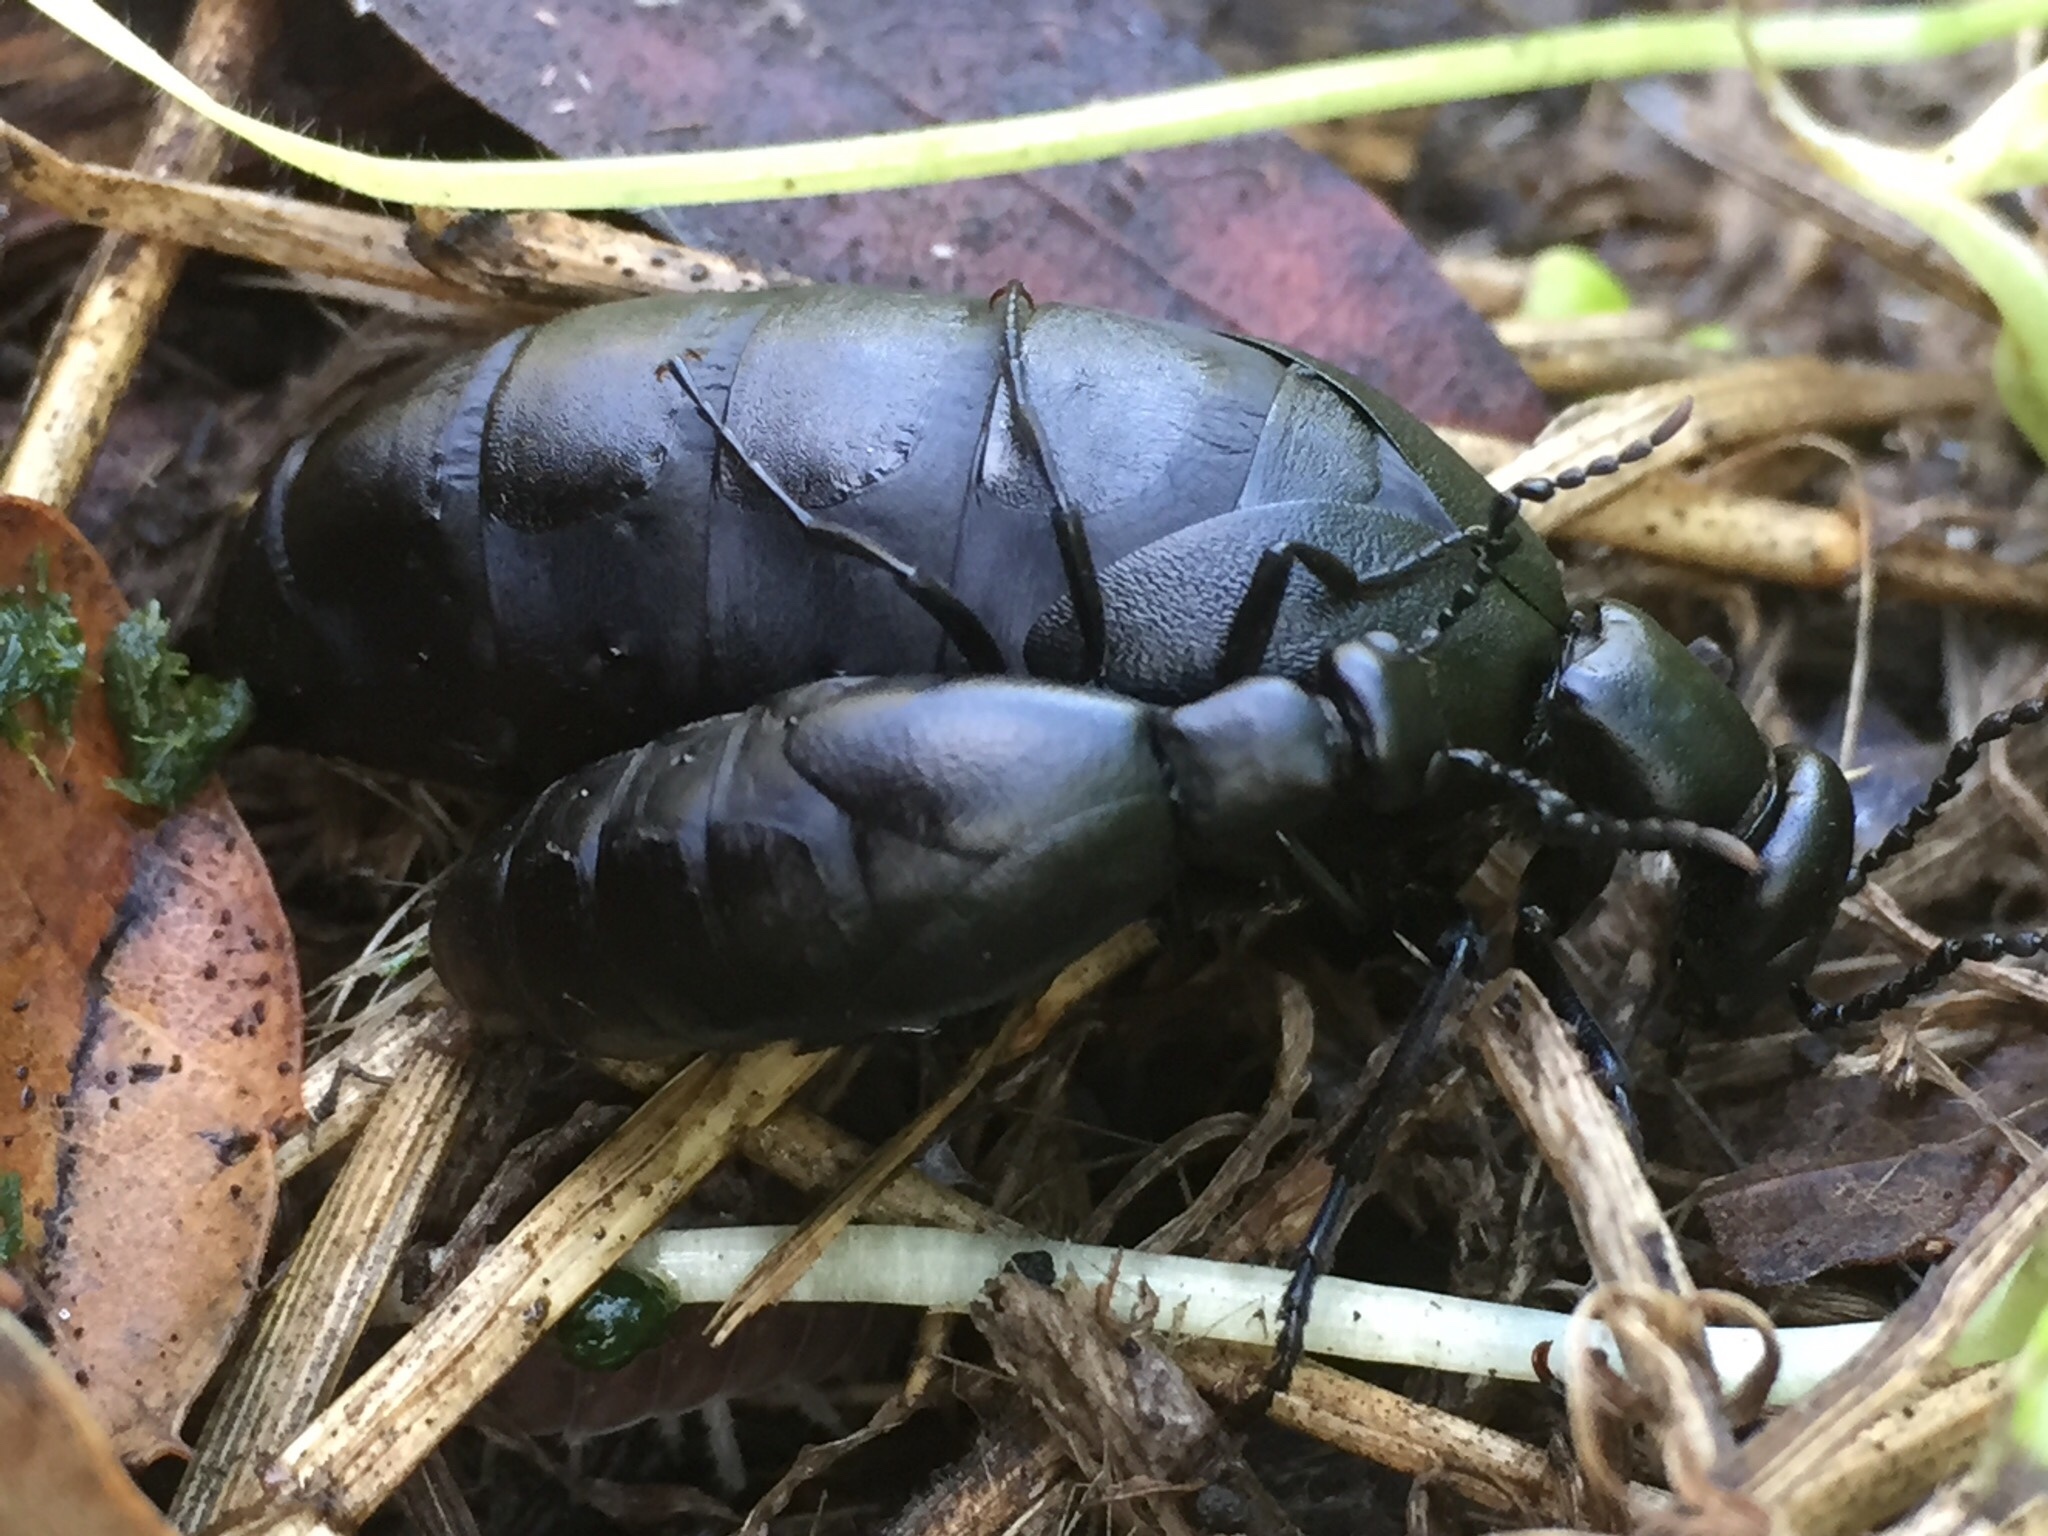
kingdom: Animalia
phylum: Arthropoda
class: Insecta
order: Coleoptera
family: Meloidae
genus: Meloe
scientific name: Meloe strigulosus
